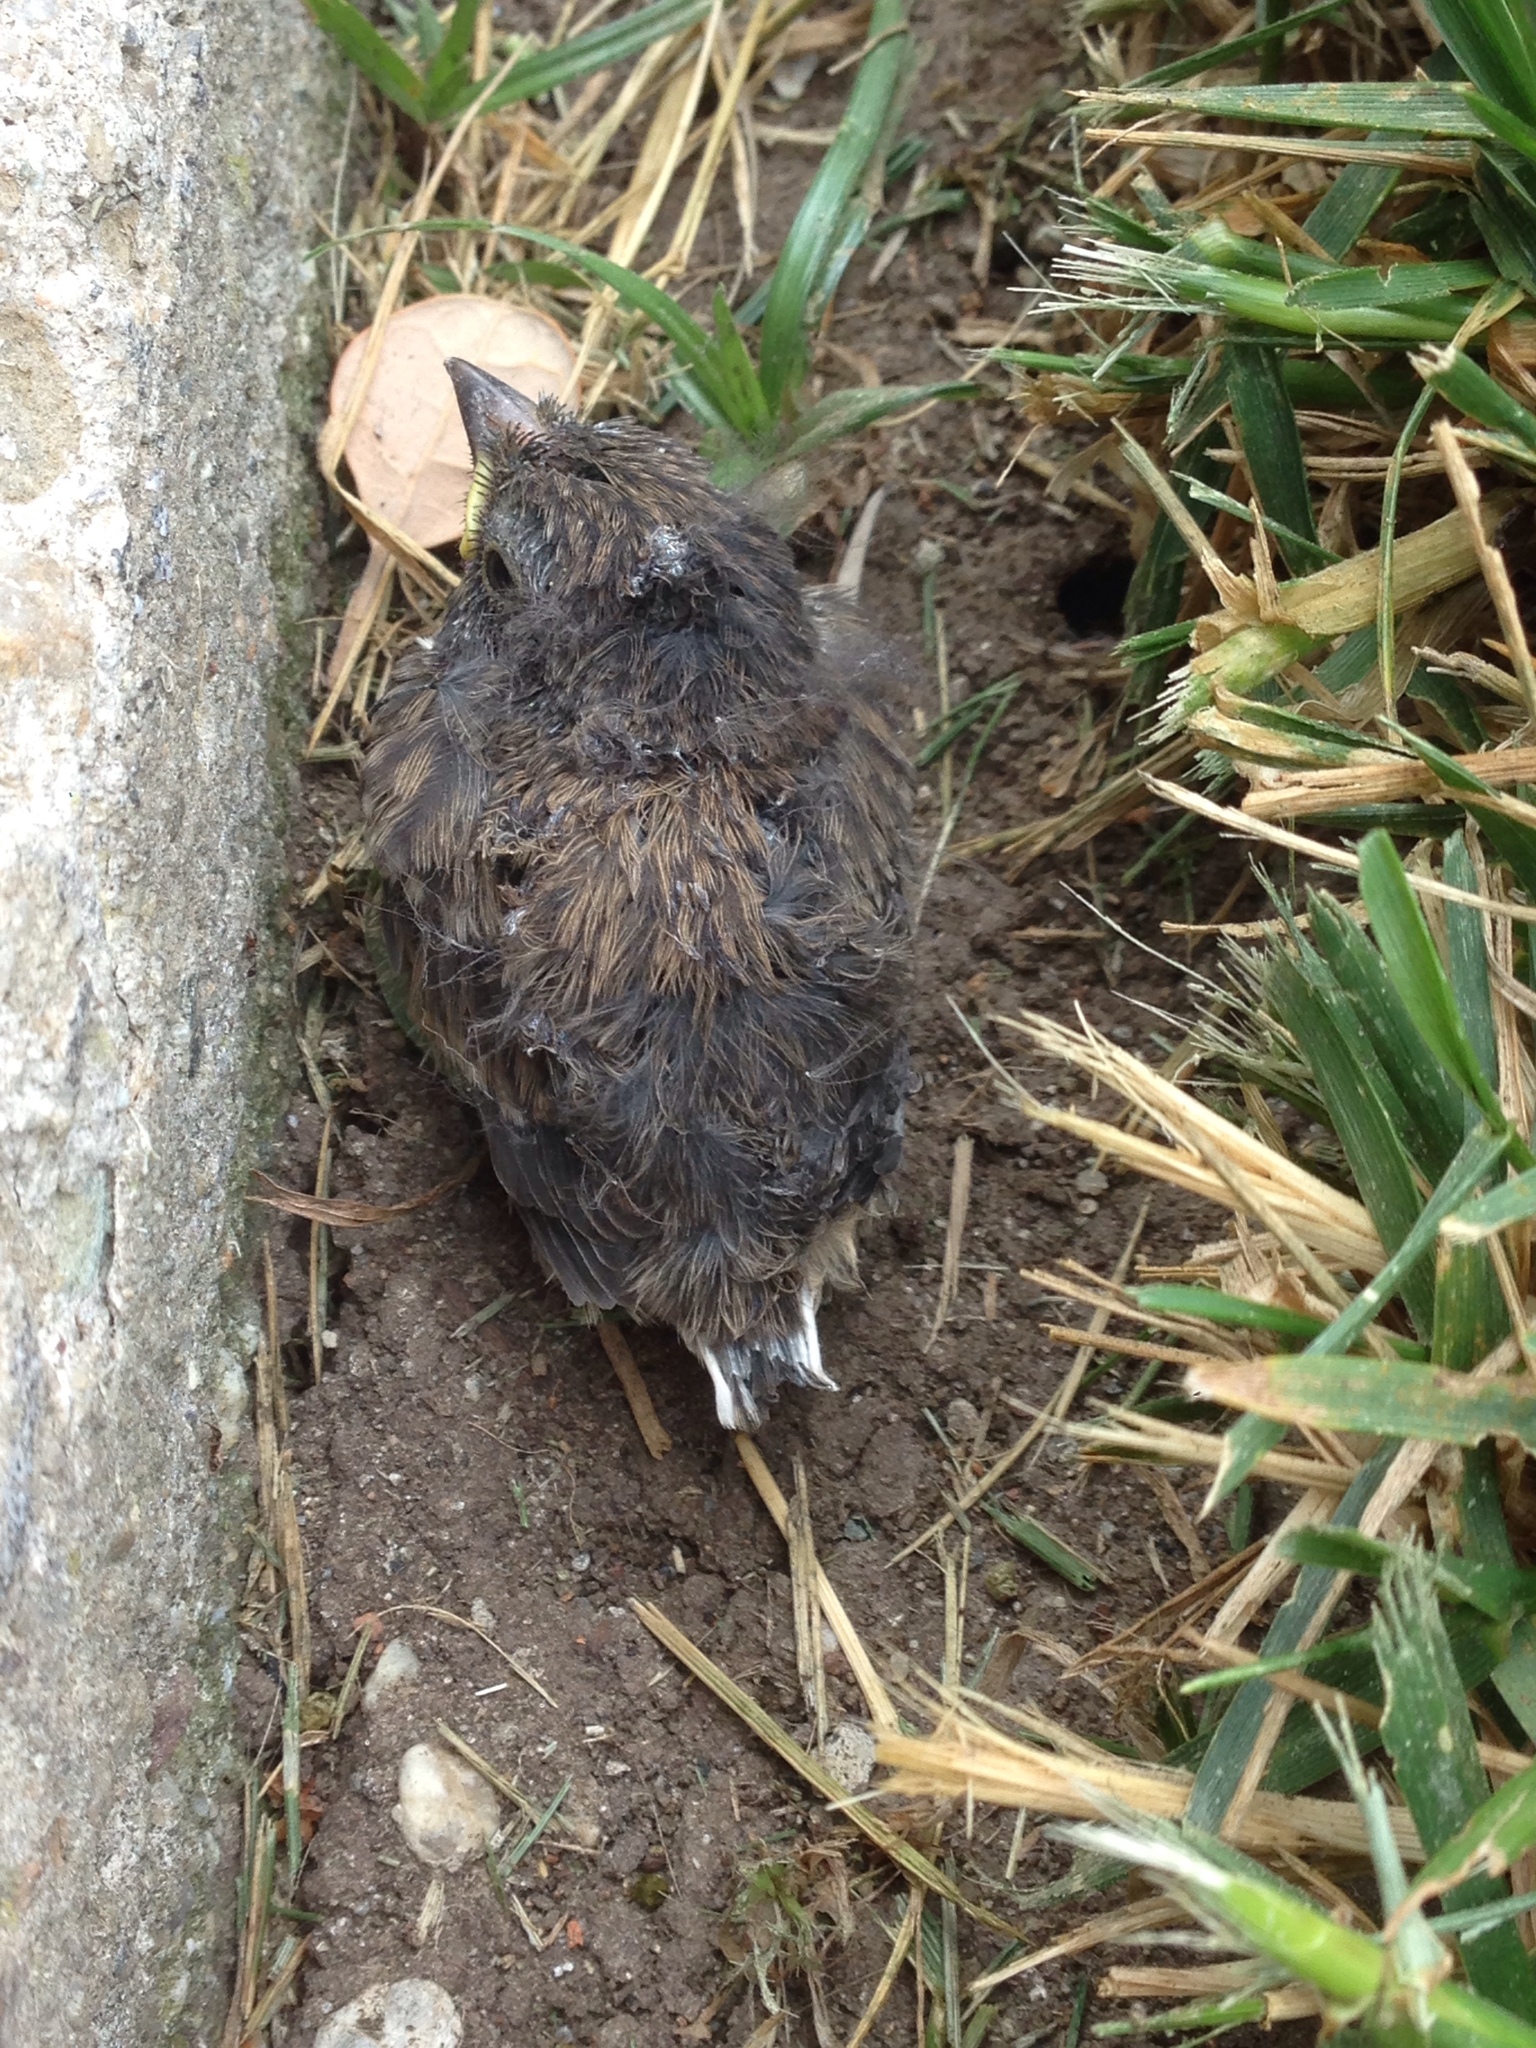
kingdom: Animalia
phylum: Chordata
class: Aves
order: Passeriformes
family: Passerellidae
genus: Junco
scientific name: Junco hyemalis
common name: Dark-eyed junco
